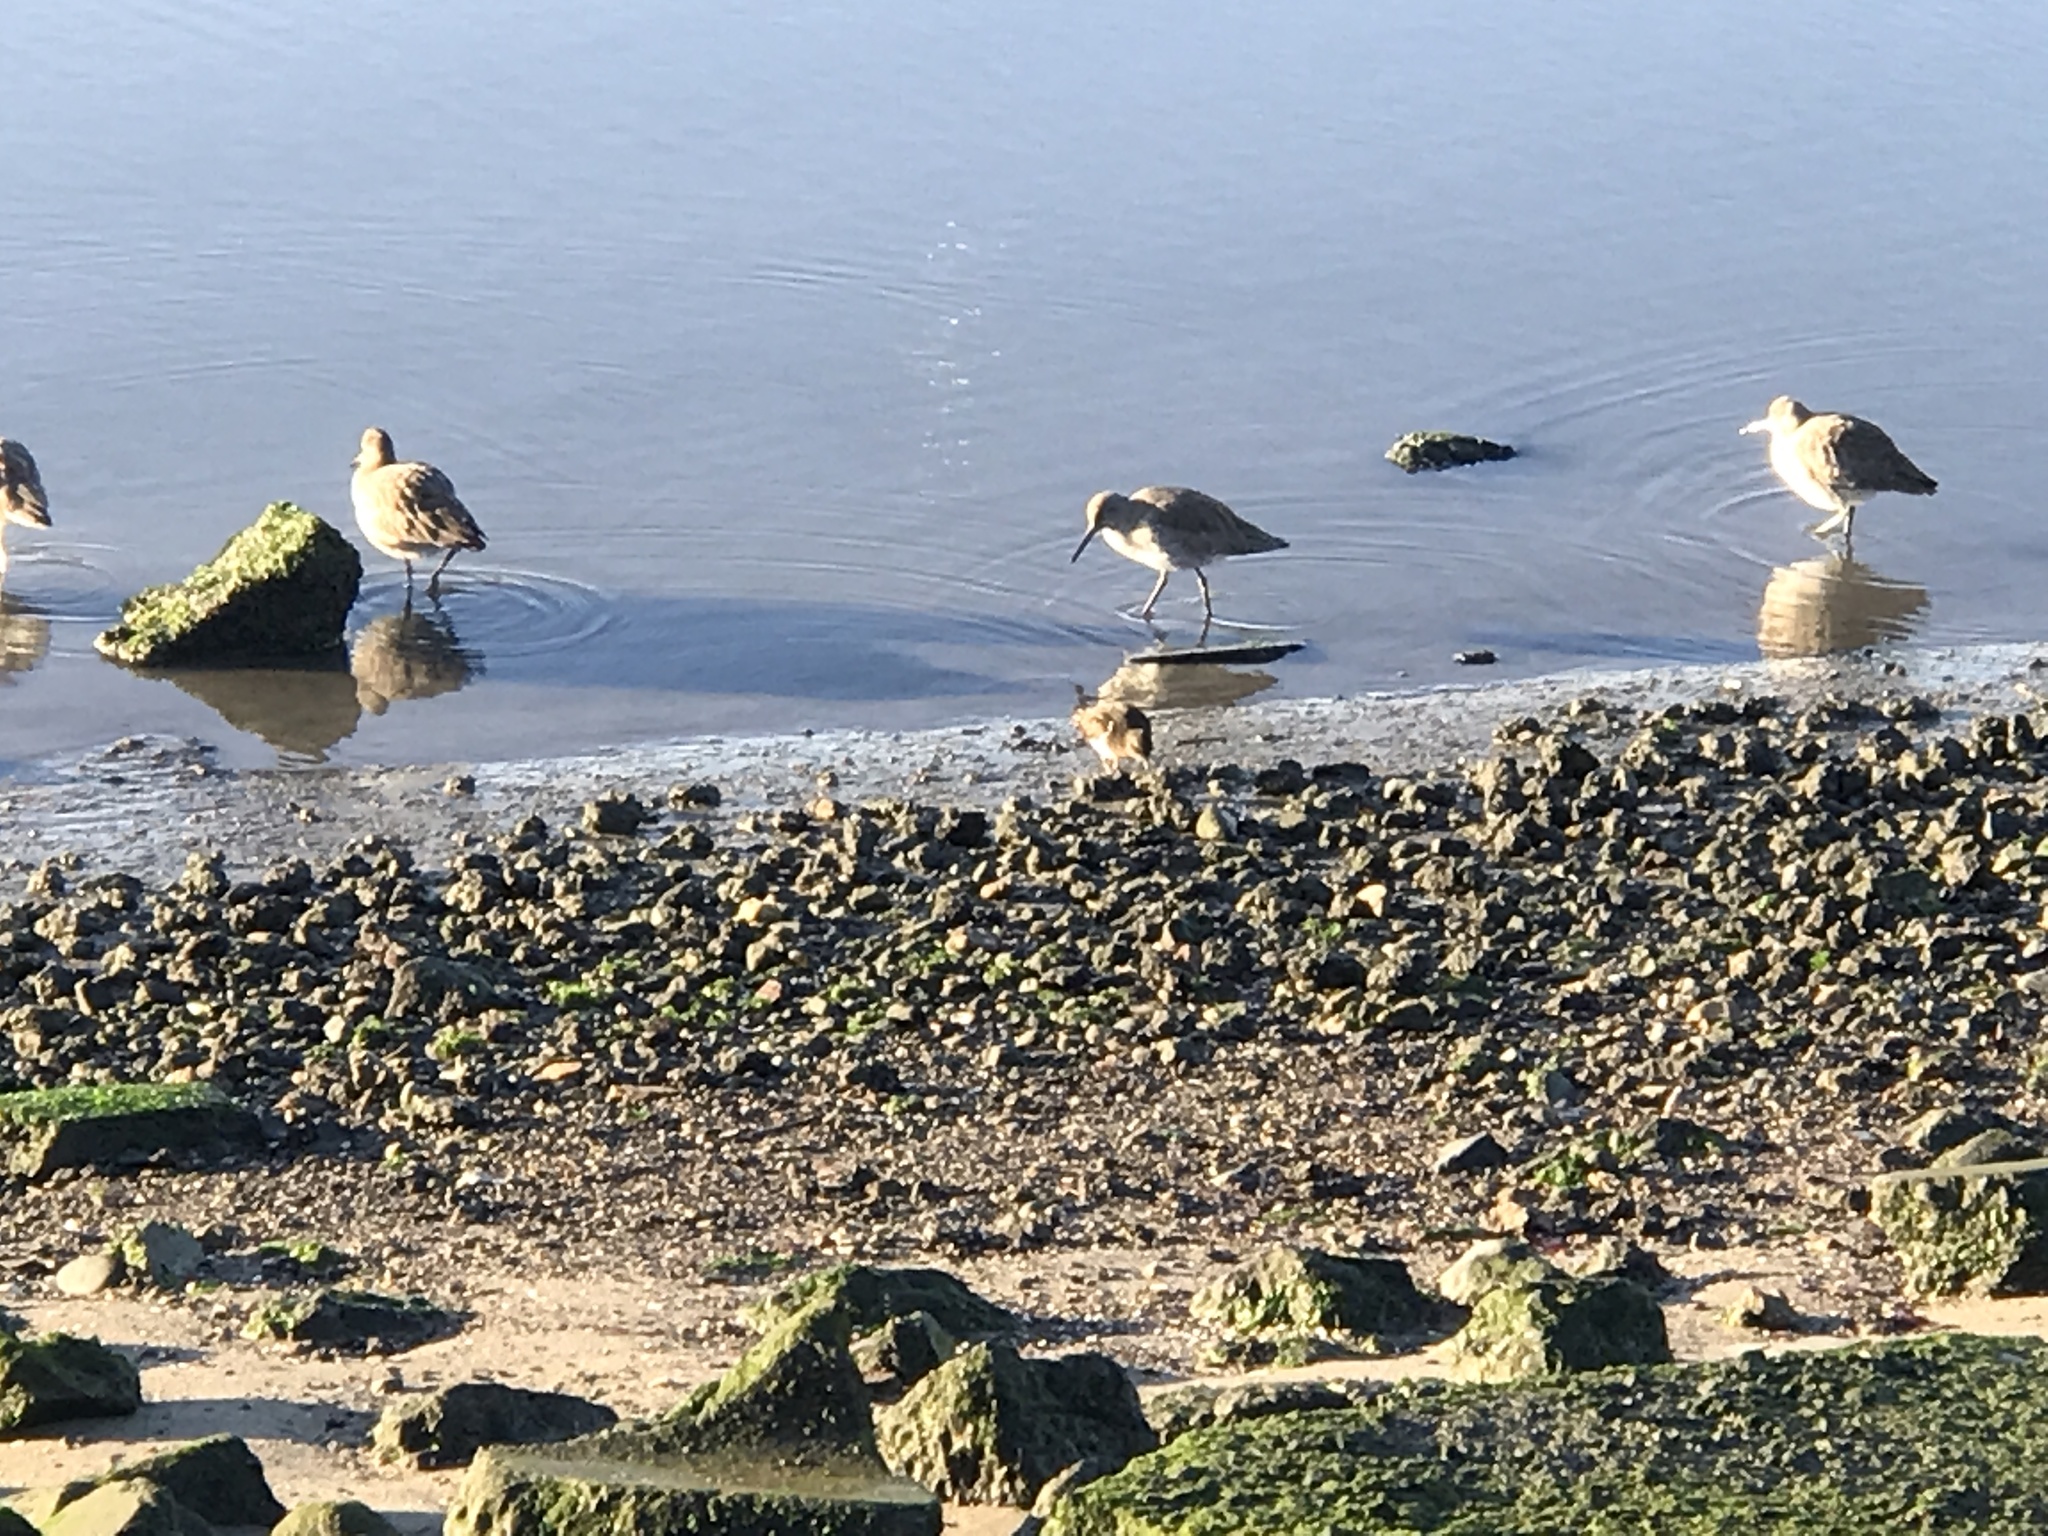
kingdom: Animalia
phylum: Chordata
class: Aves
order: Charadriiformes
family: Scolopacidae
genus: Tringa
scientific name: Tringa semipalmata
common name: Willet
